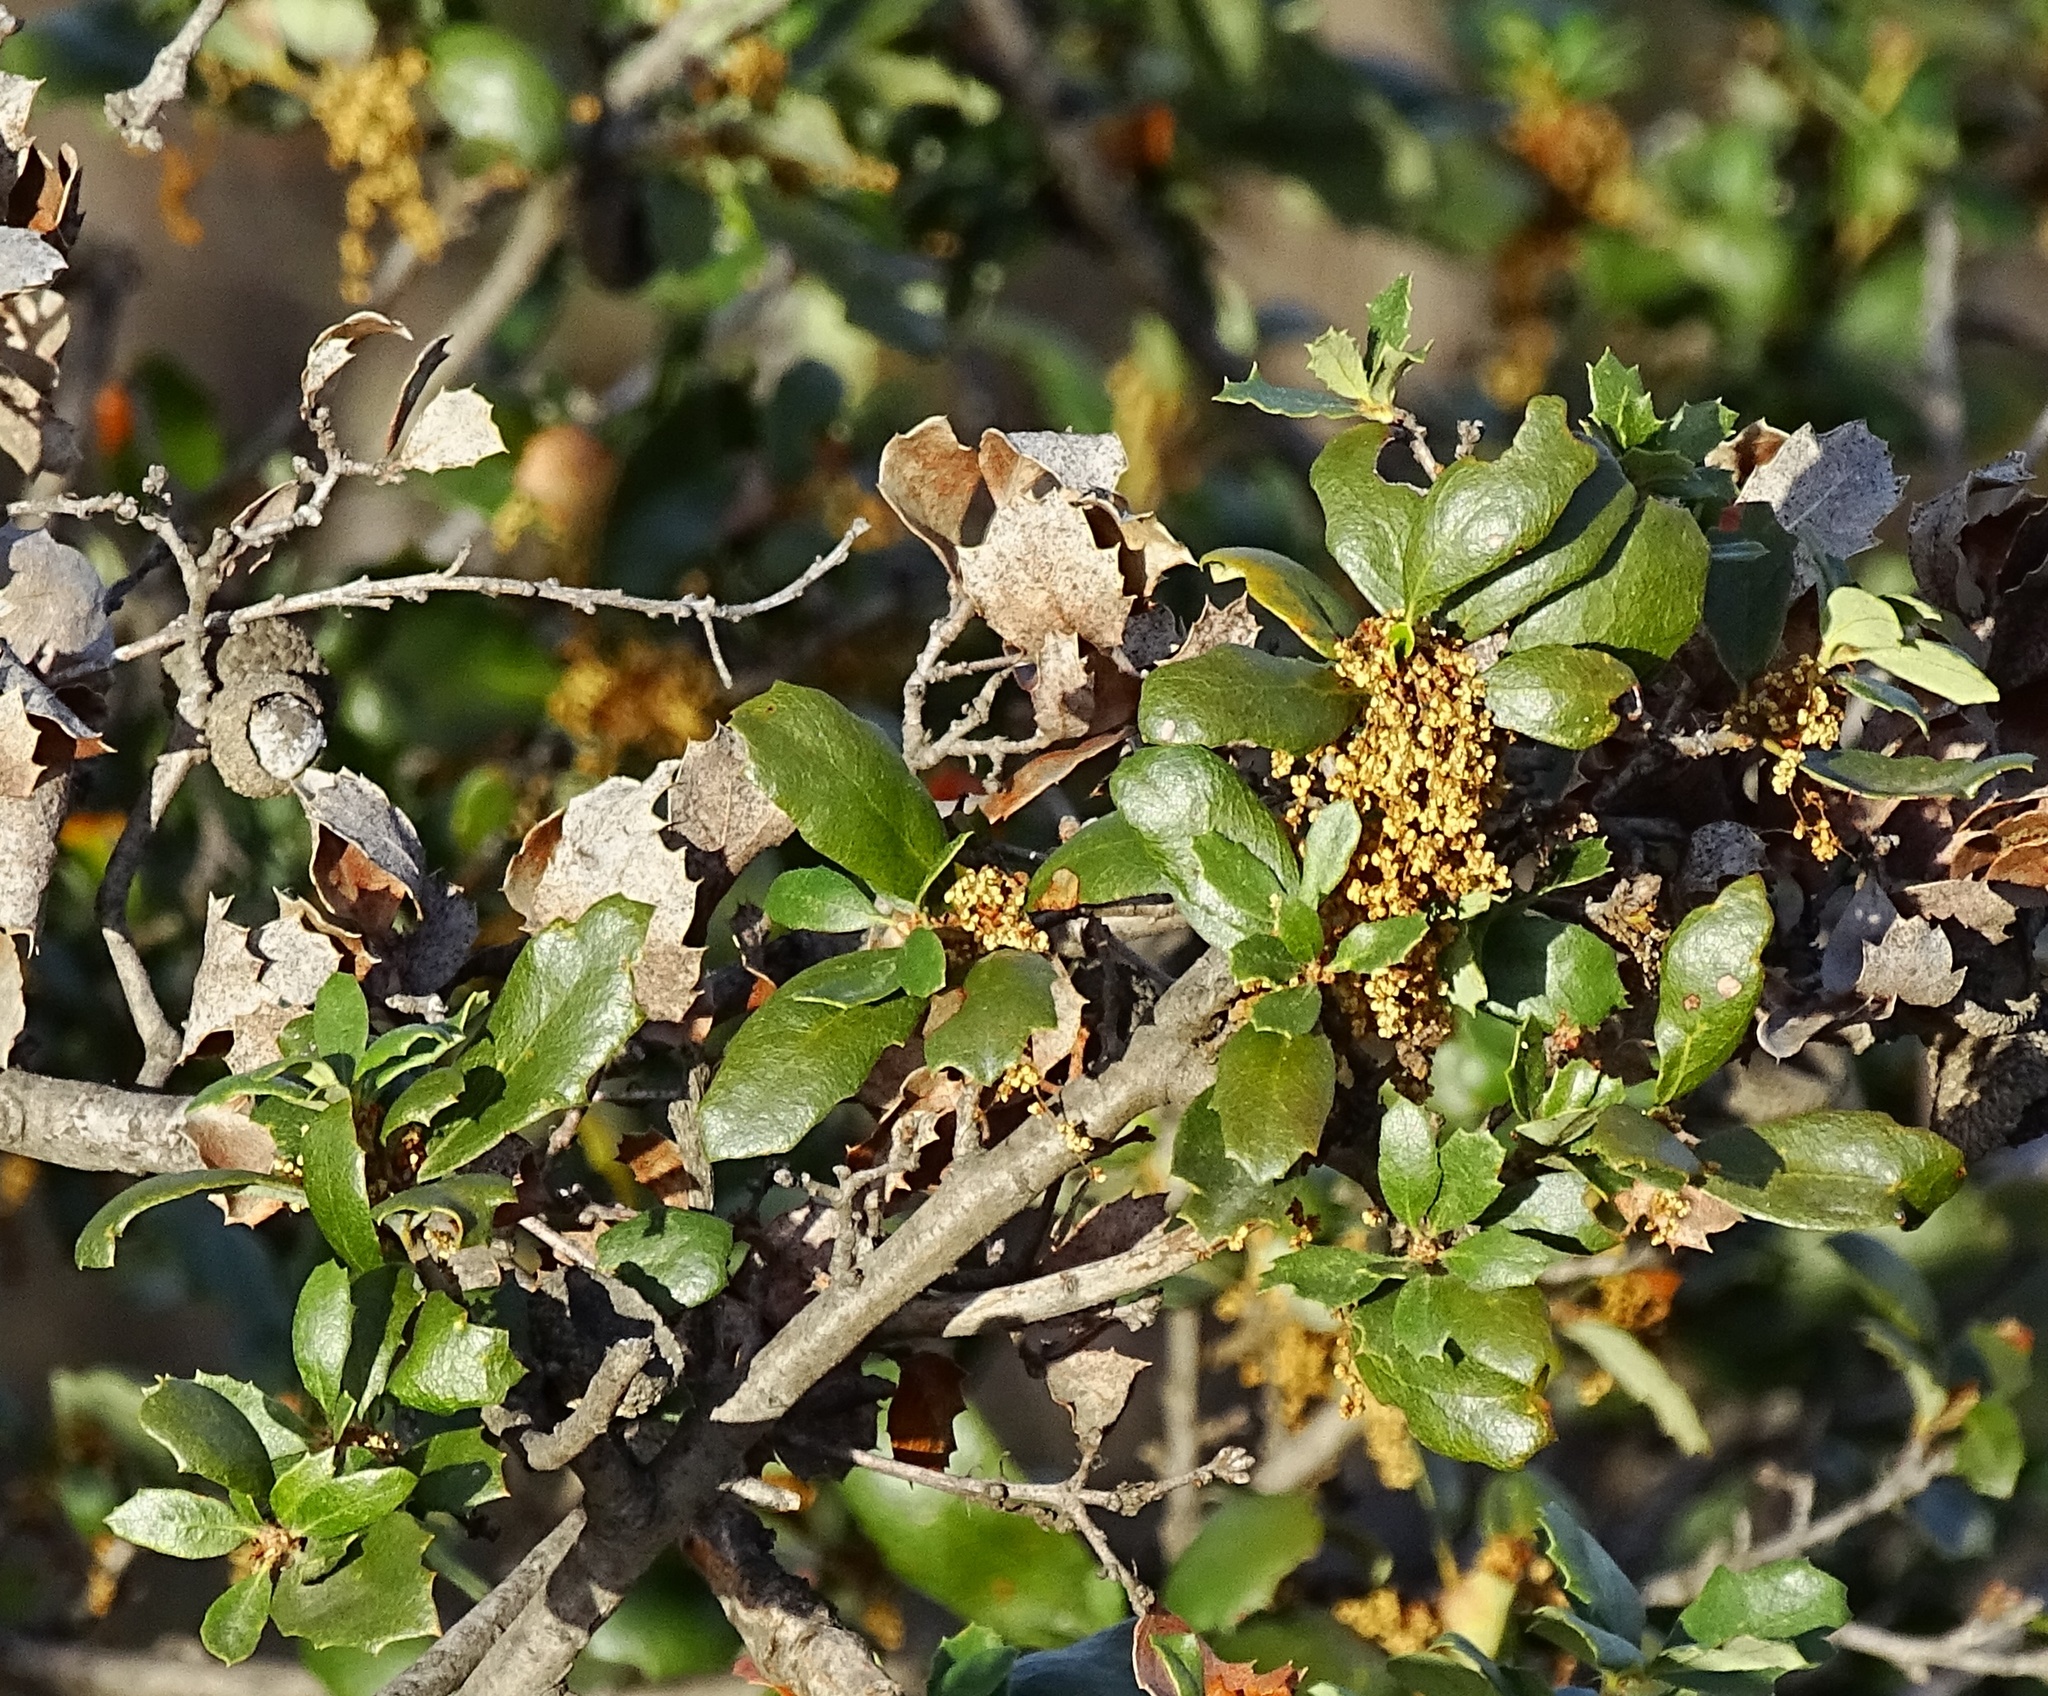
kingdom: Plantae
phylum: Tracheophyta
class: Magnoliopsida
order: Fagales
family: Fagaceae
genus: Quercus
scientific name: Quercus durata
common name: Leather oak
